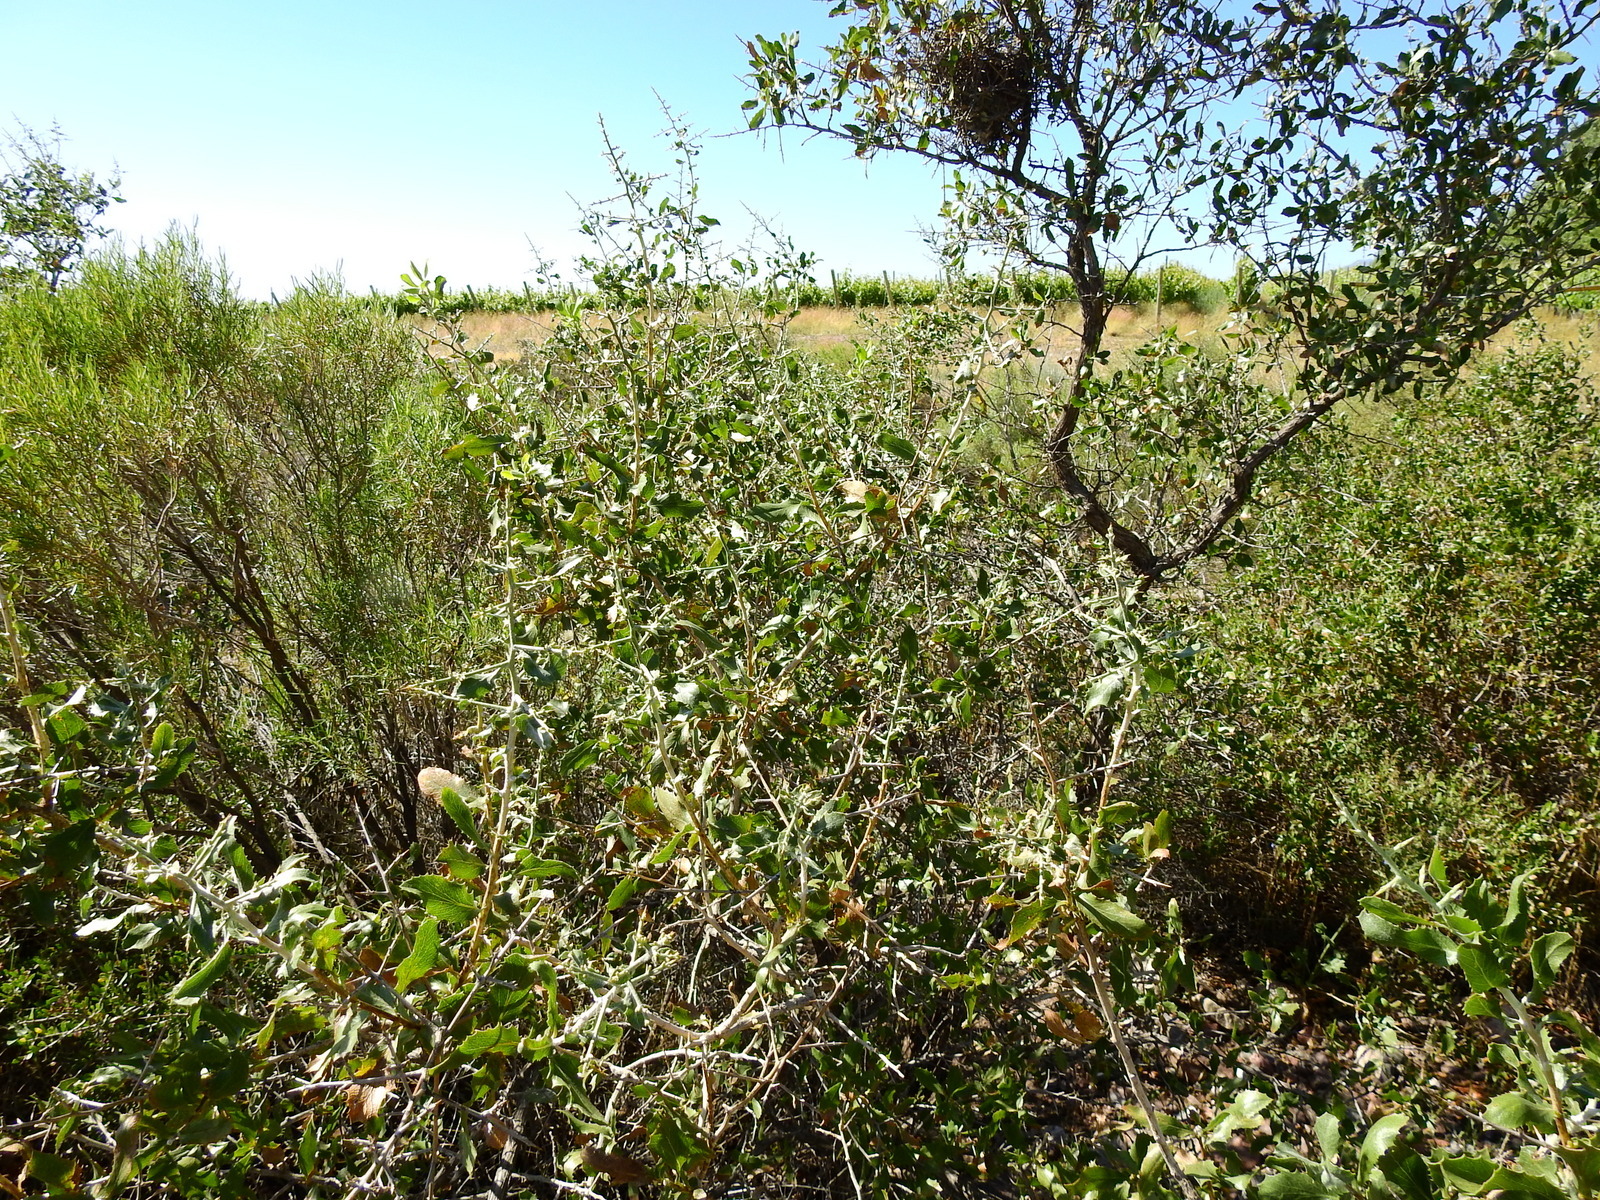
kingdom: Plantae
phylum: Tracheophyta
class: Magnoliopsida
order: Asterales
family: Asteraceae
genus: Proustia
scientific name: Proustia cuneifolia
